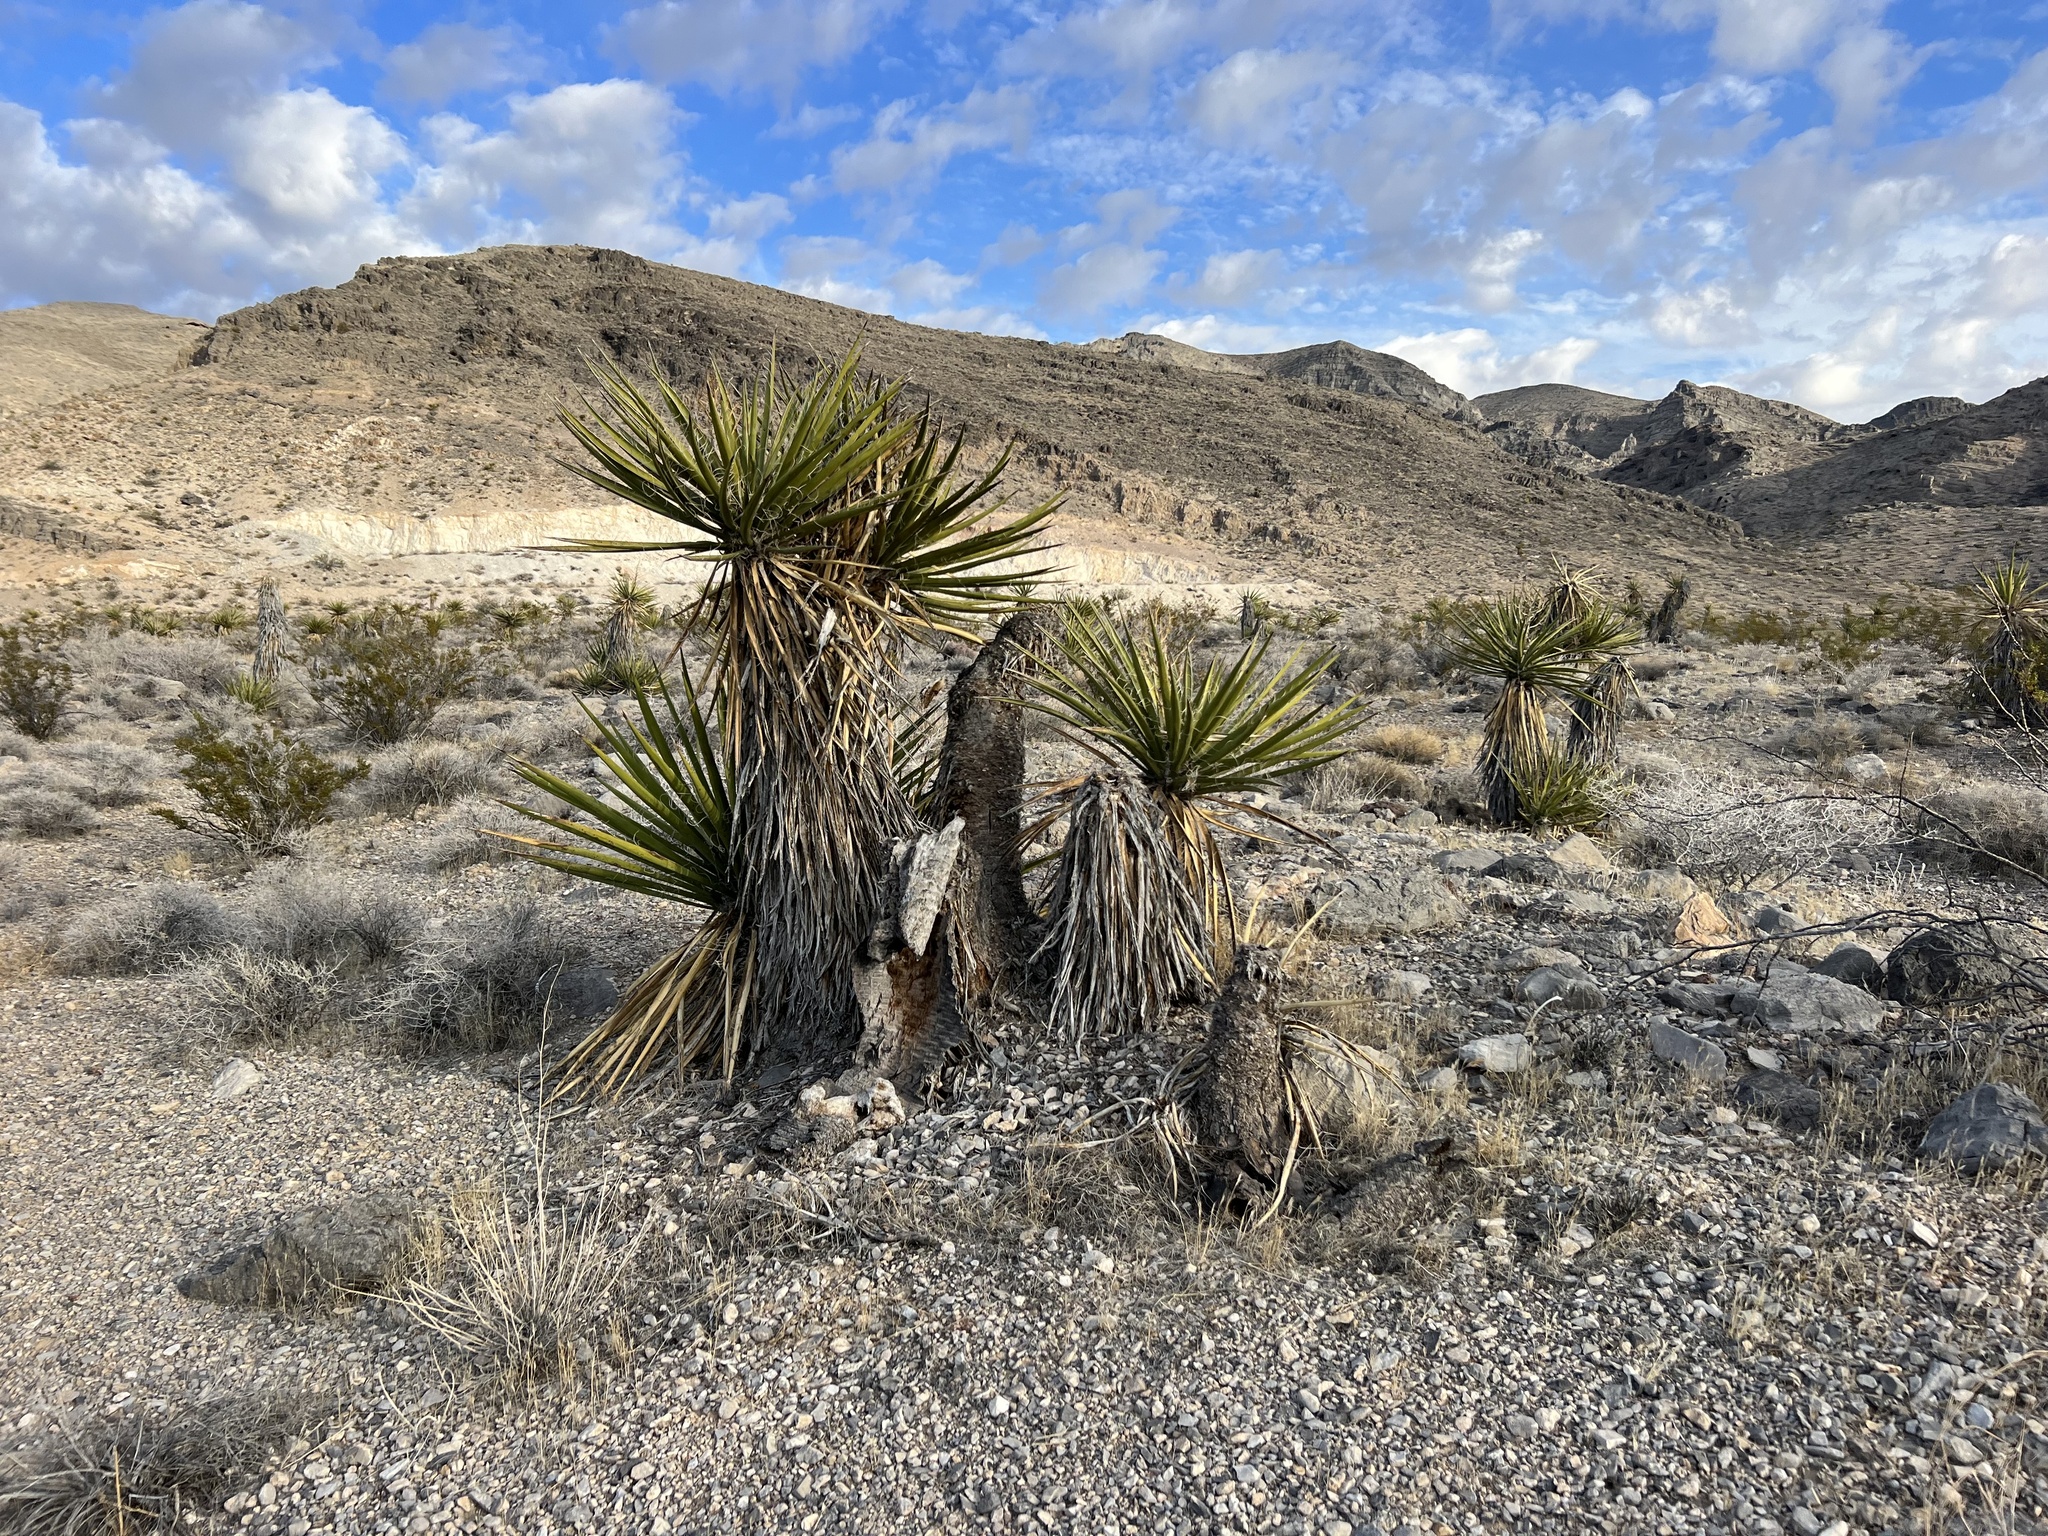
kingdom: Plantae
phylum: Tracheophyta
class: Liliopsida
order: Asparagales
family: Asparagaceae
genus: Yucca
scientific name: Yucca schidigera
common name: Mojave yucca
